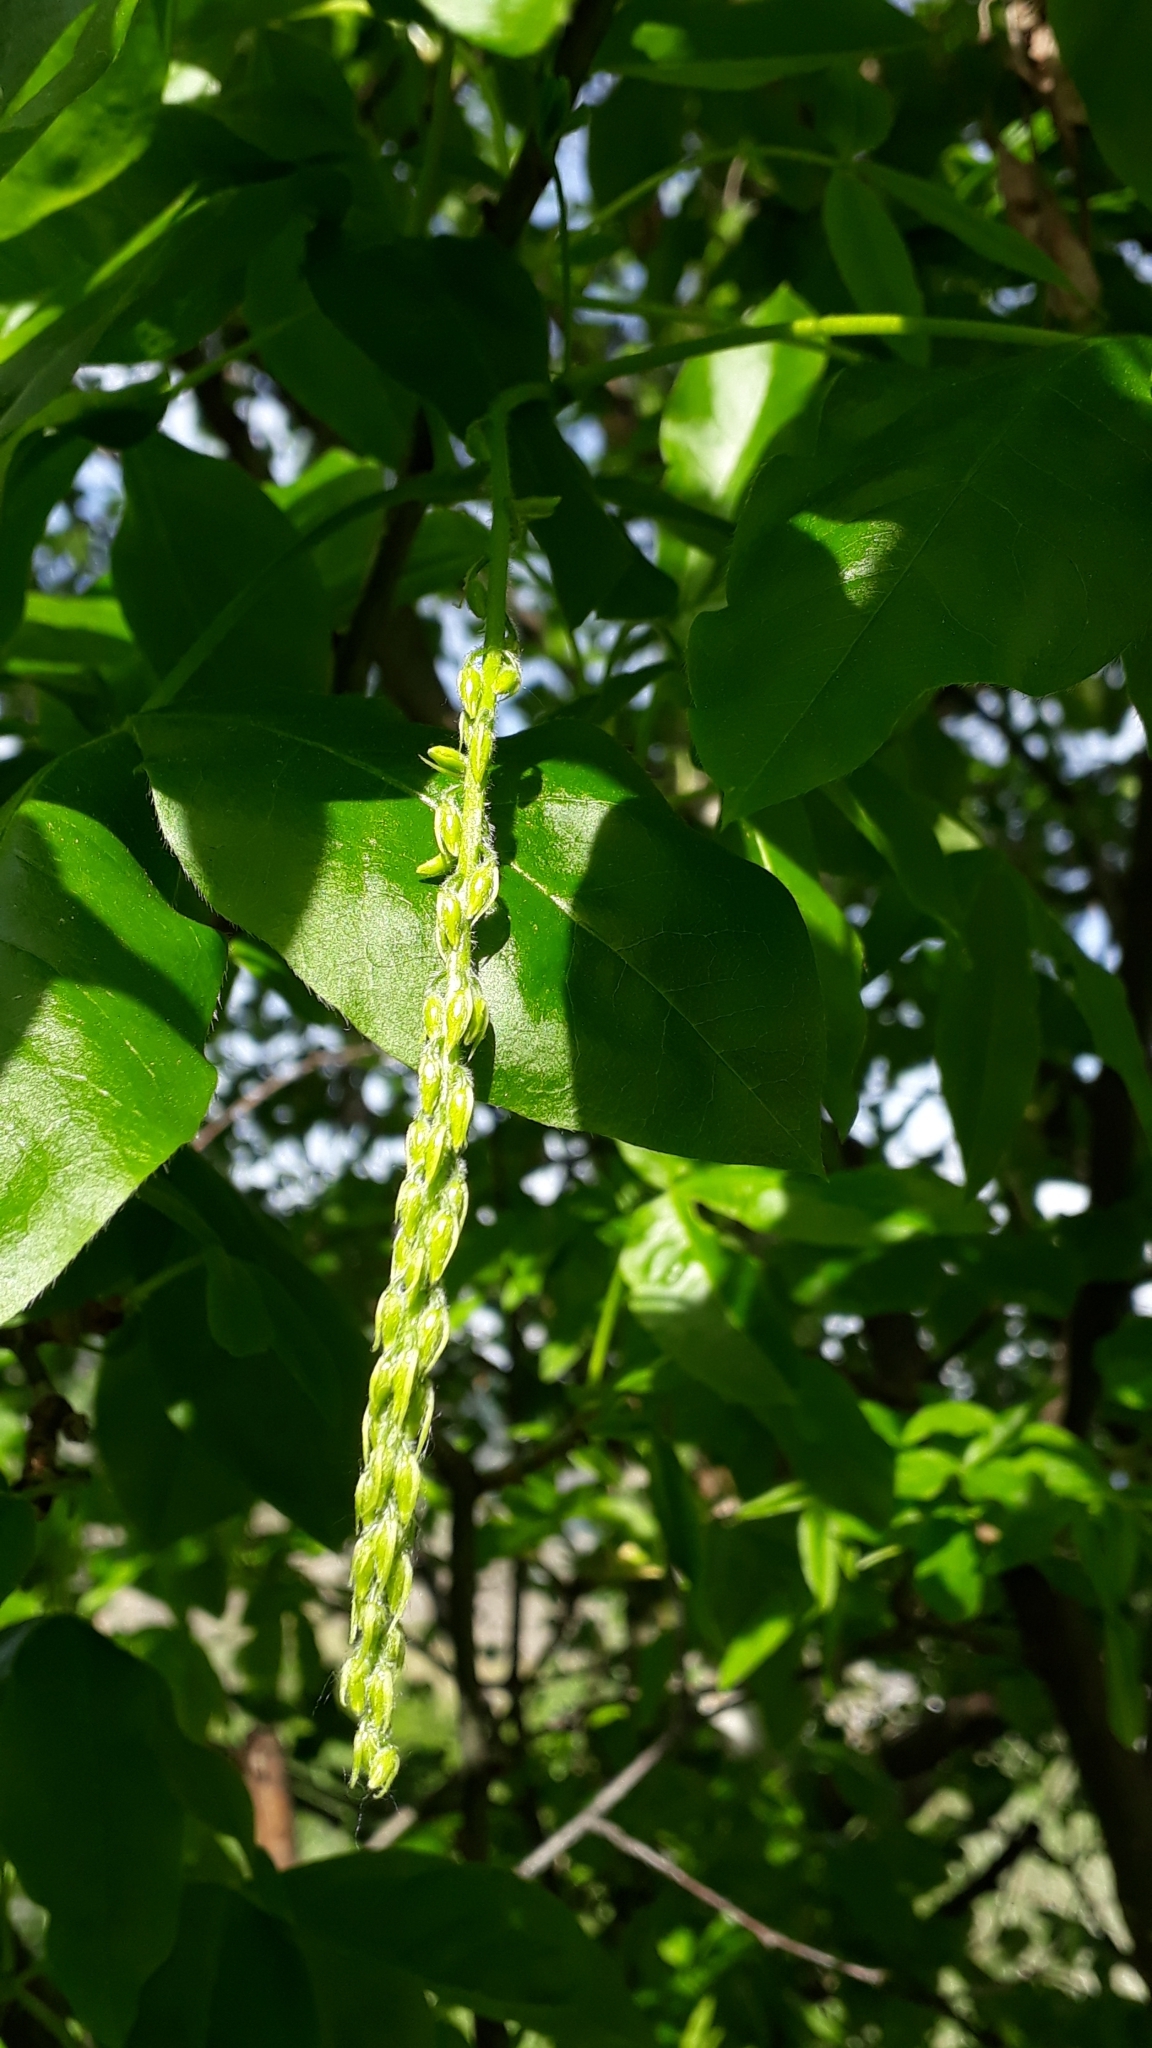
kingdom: Plantae
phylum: Tracheophyta
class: Magnoliopsida
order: Fabales
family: Fabaceae
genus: Laburnum
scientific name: Laburnum alpinum
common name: Scottish laburnum
